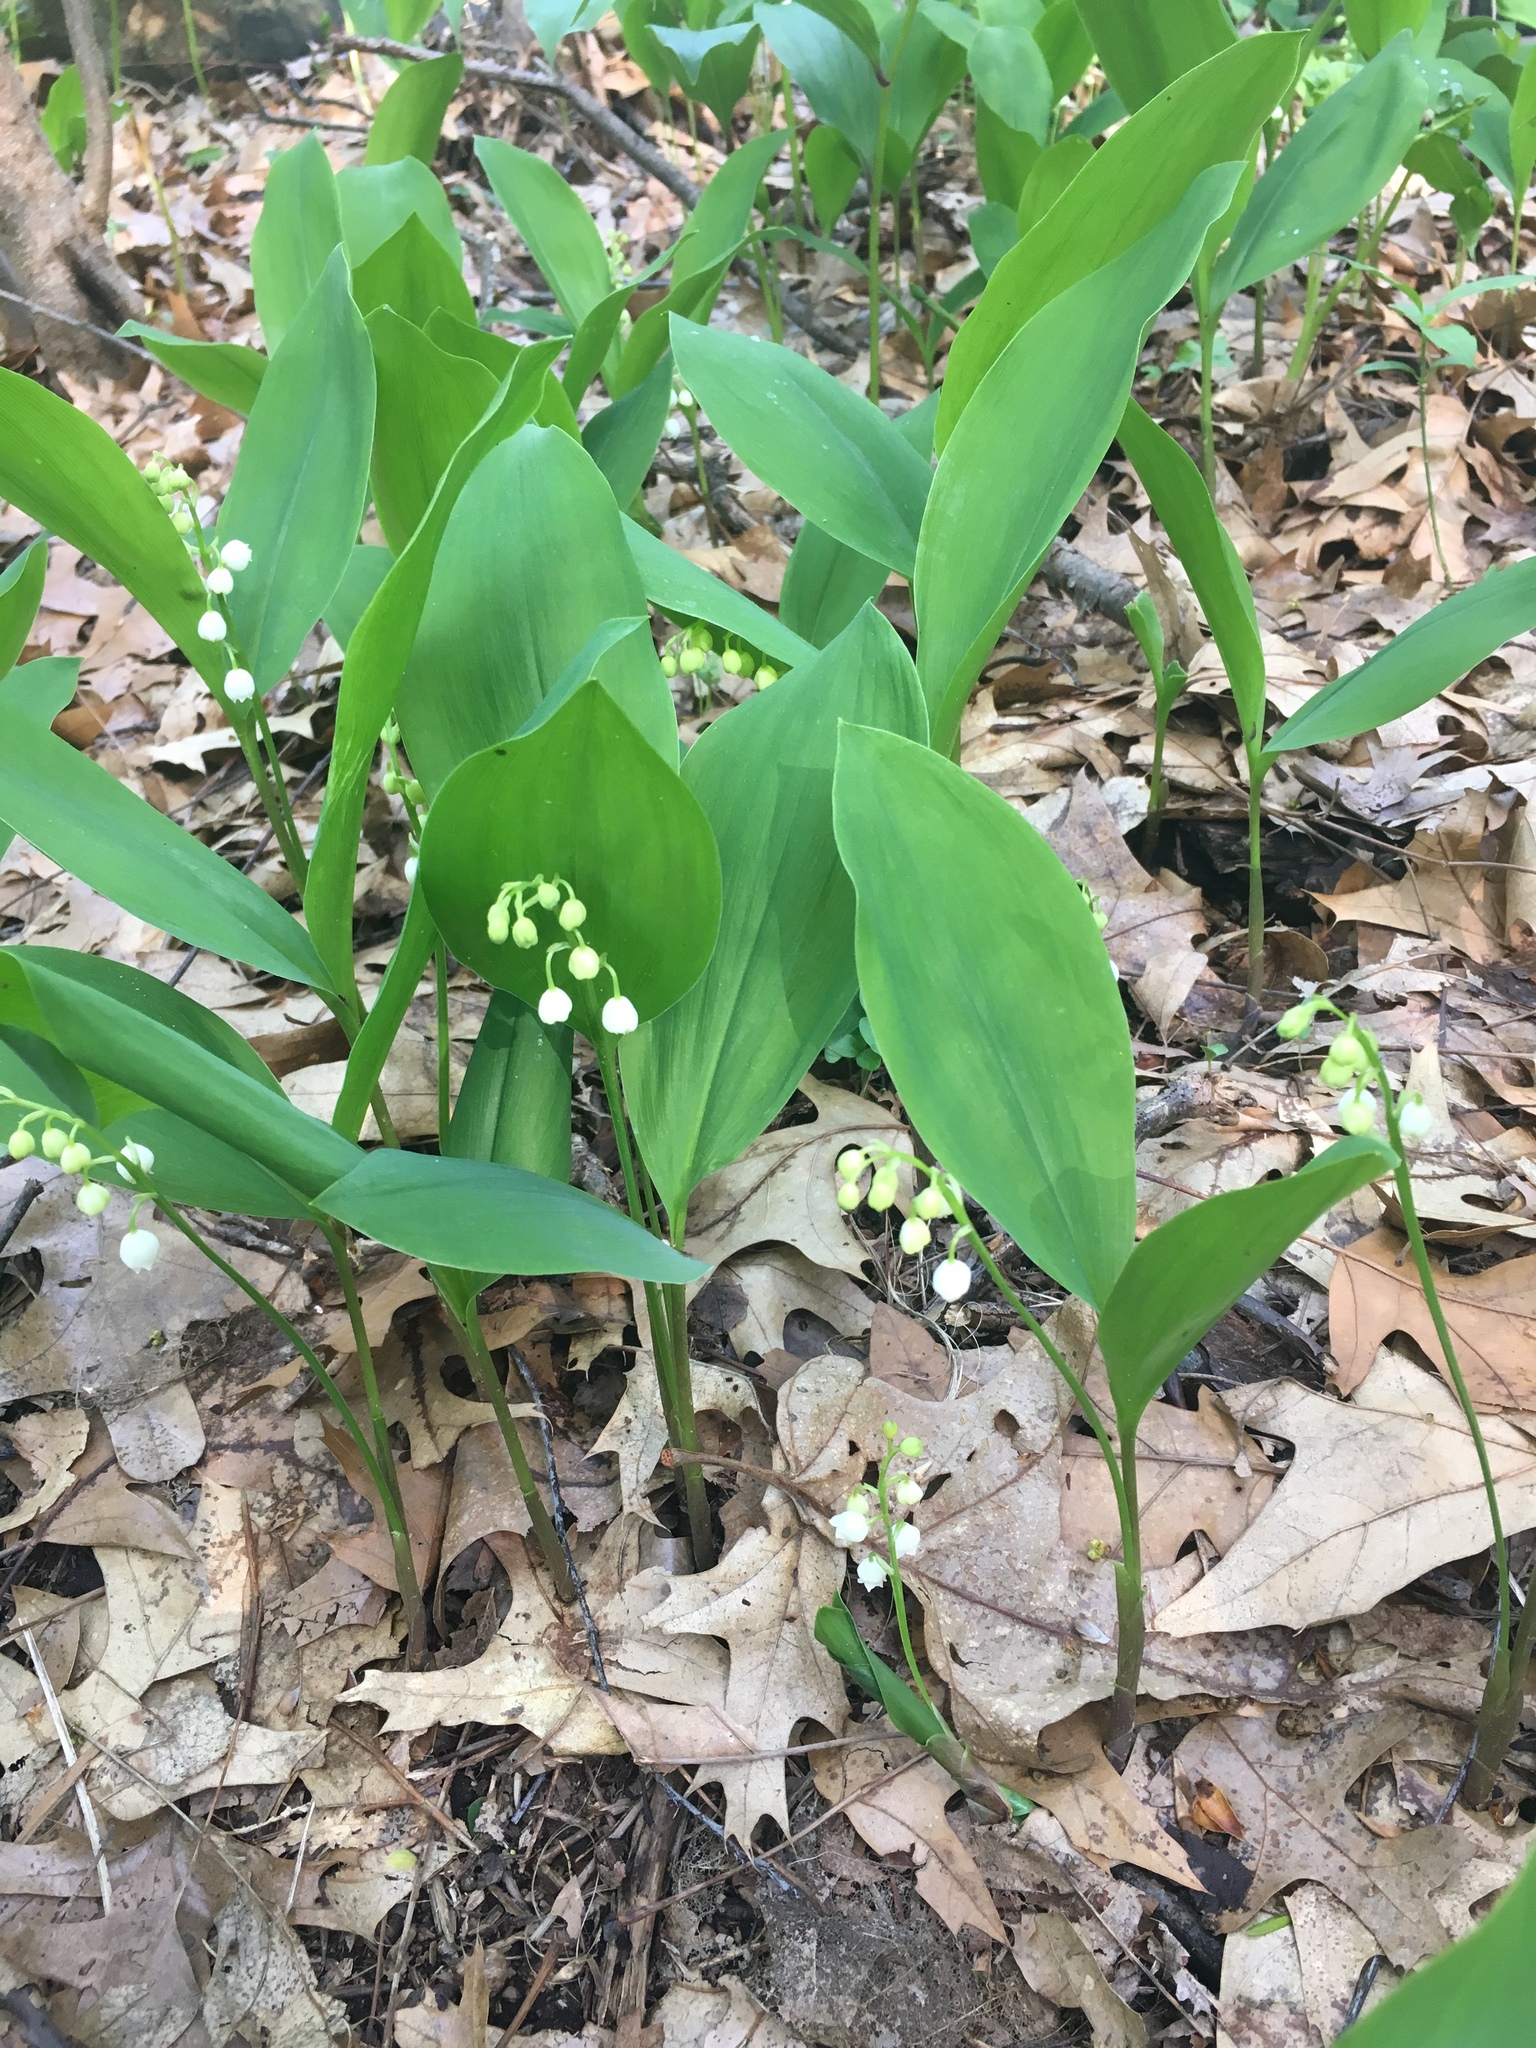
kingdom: Plantae
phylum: Tracheophyta
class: Liliopsida
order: Asparagales
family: Asparagaceae
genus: Convallaria
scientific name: Convallaria majalis
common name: Lily-of-the-valley
